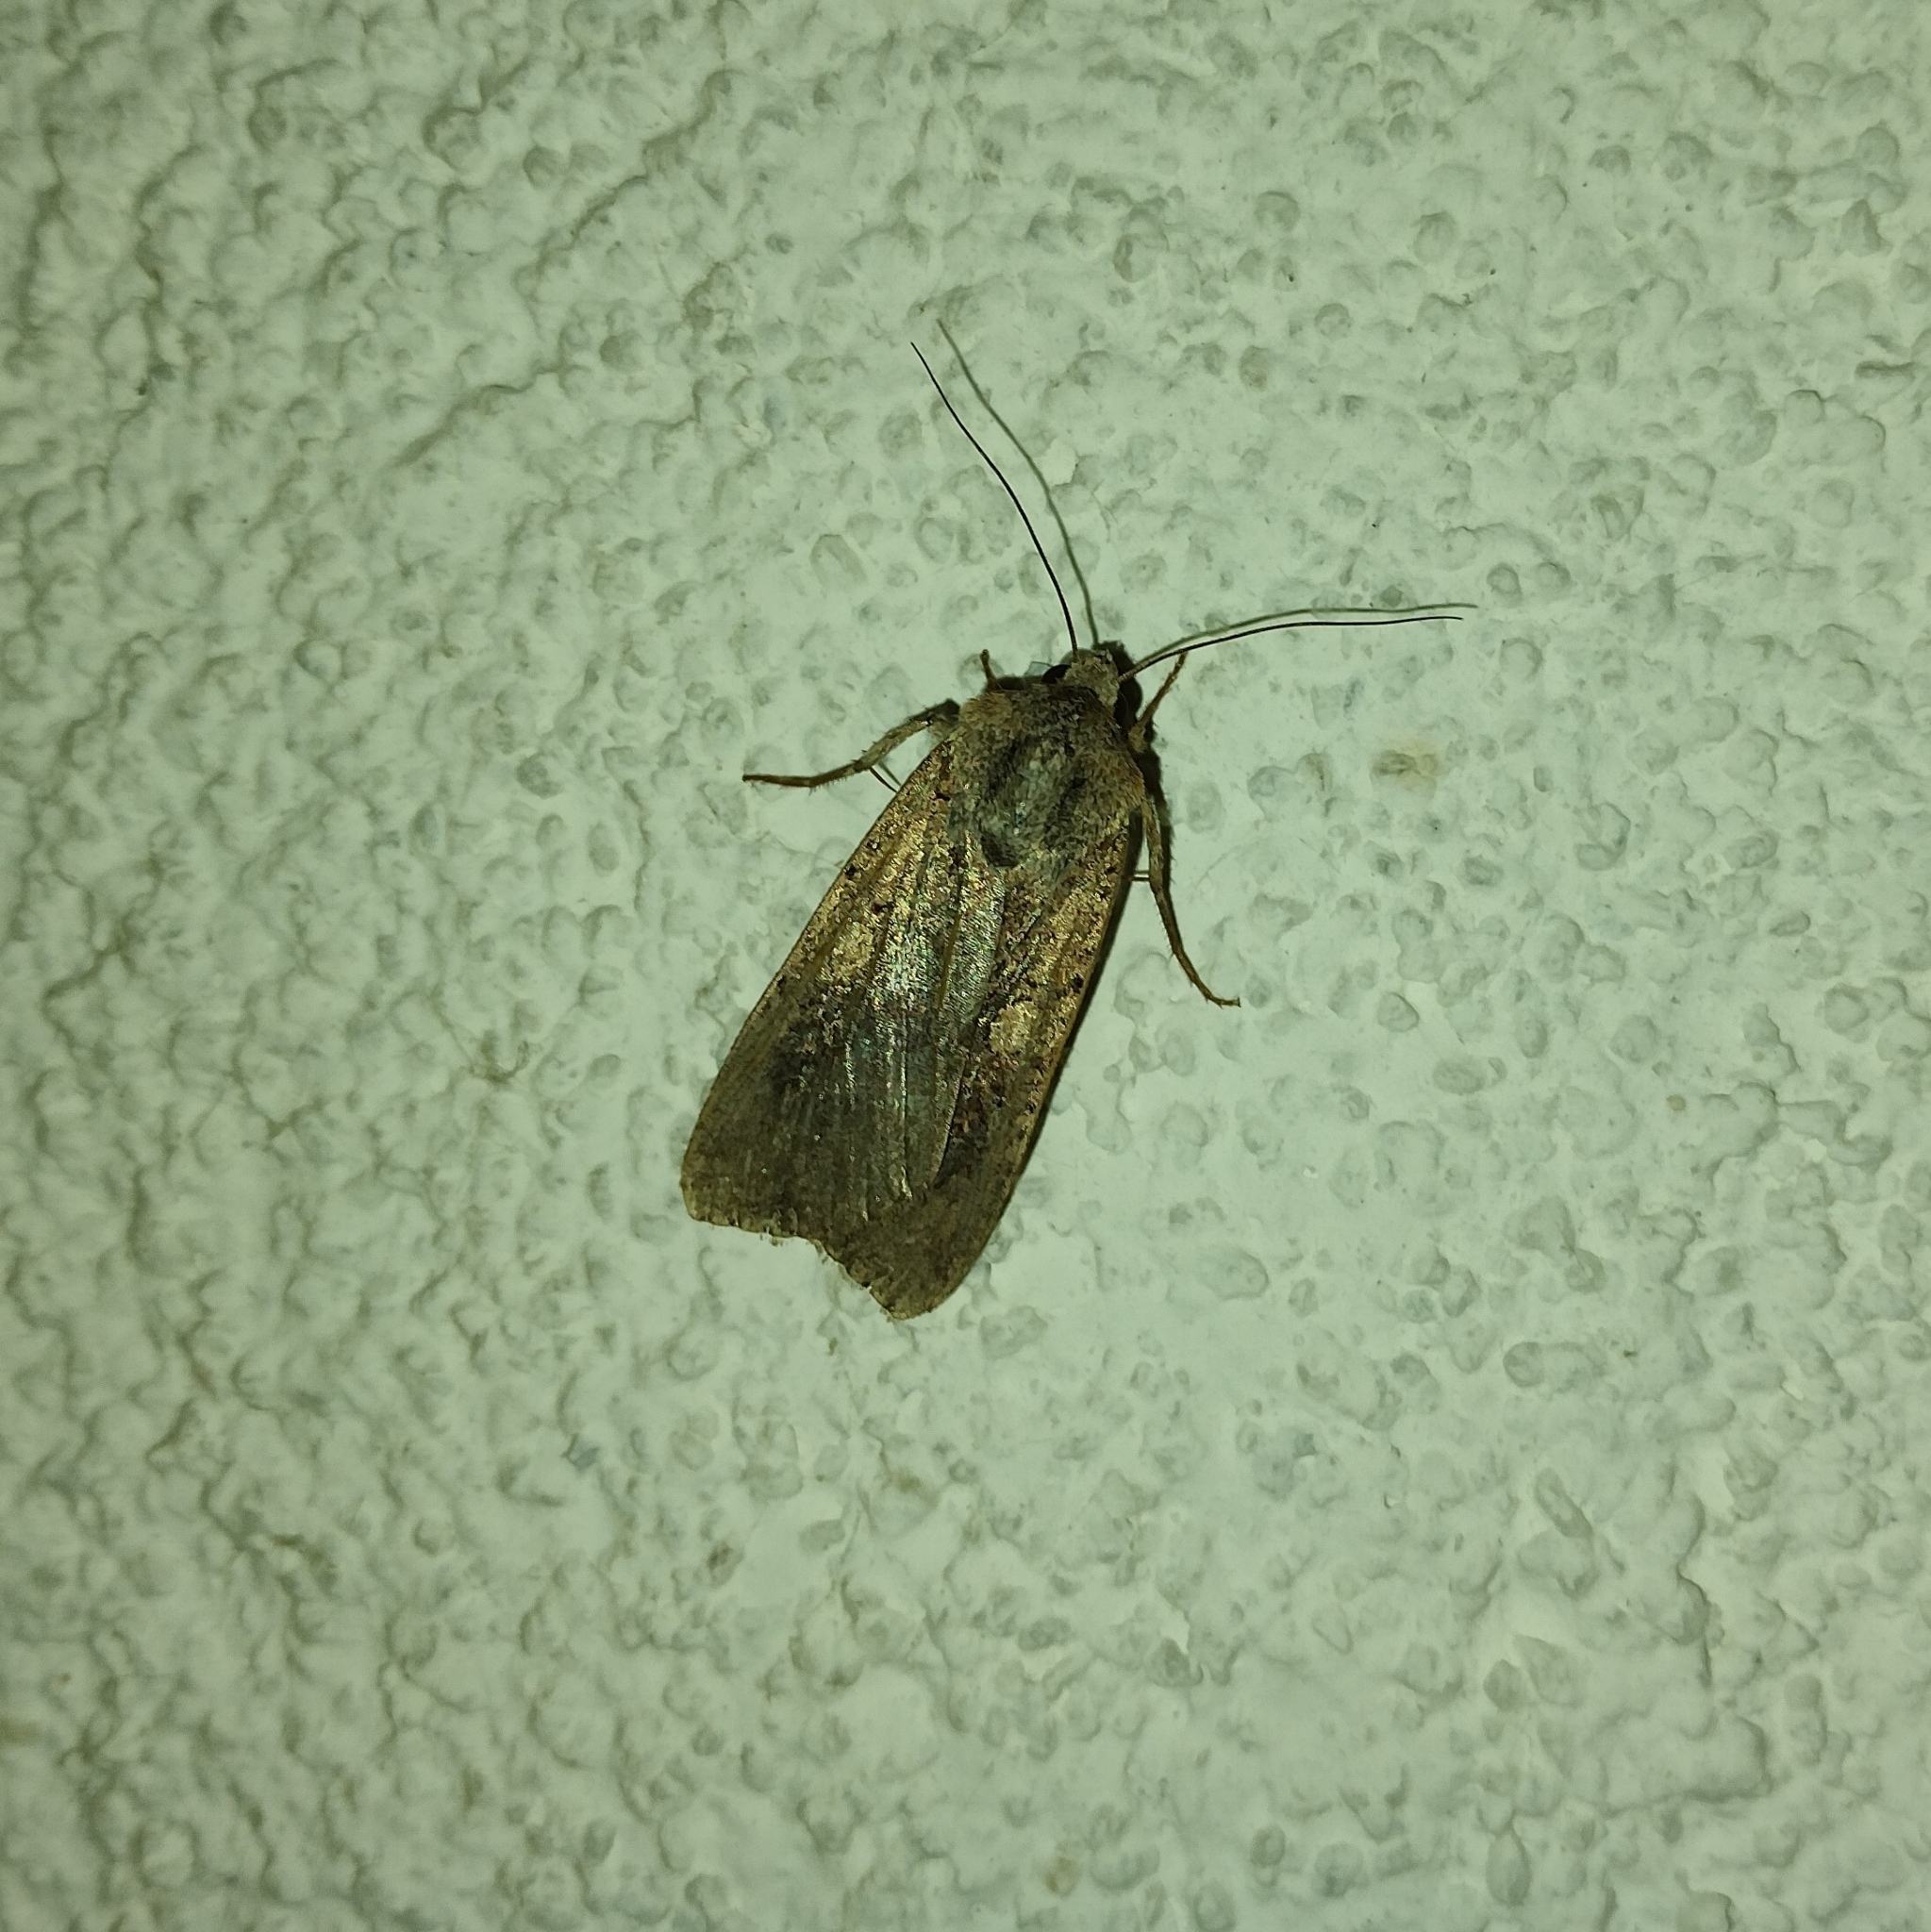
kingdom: Animalia
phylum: Arthropoda
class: Insecta
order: Lepidoptera
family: Noctuidae
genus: Peridroma
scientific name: Peridroma saucia
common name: Pearly underwing
